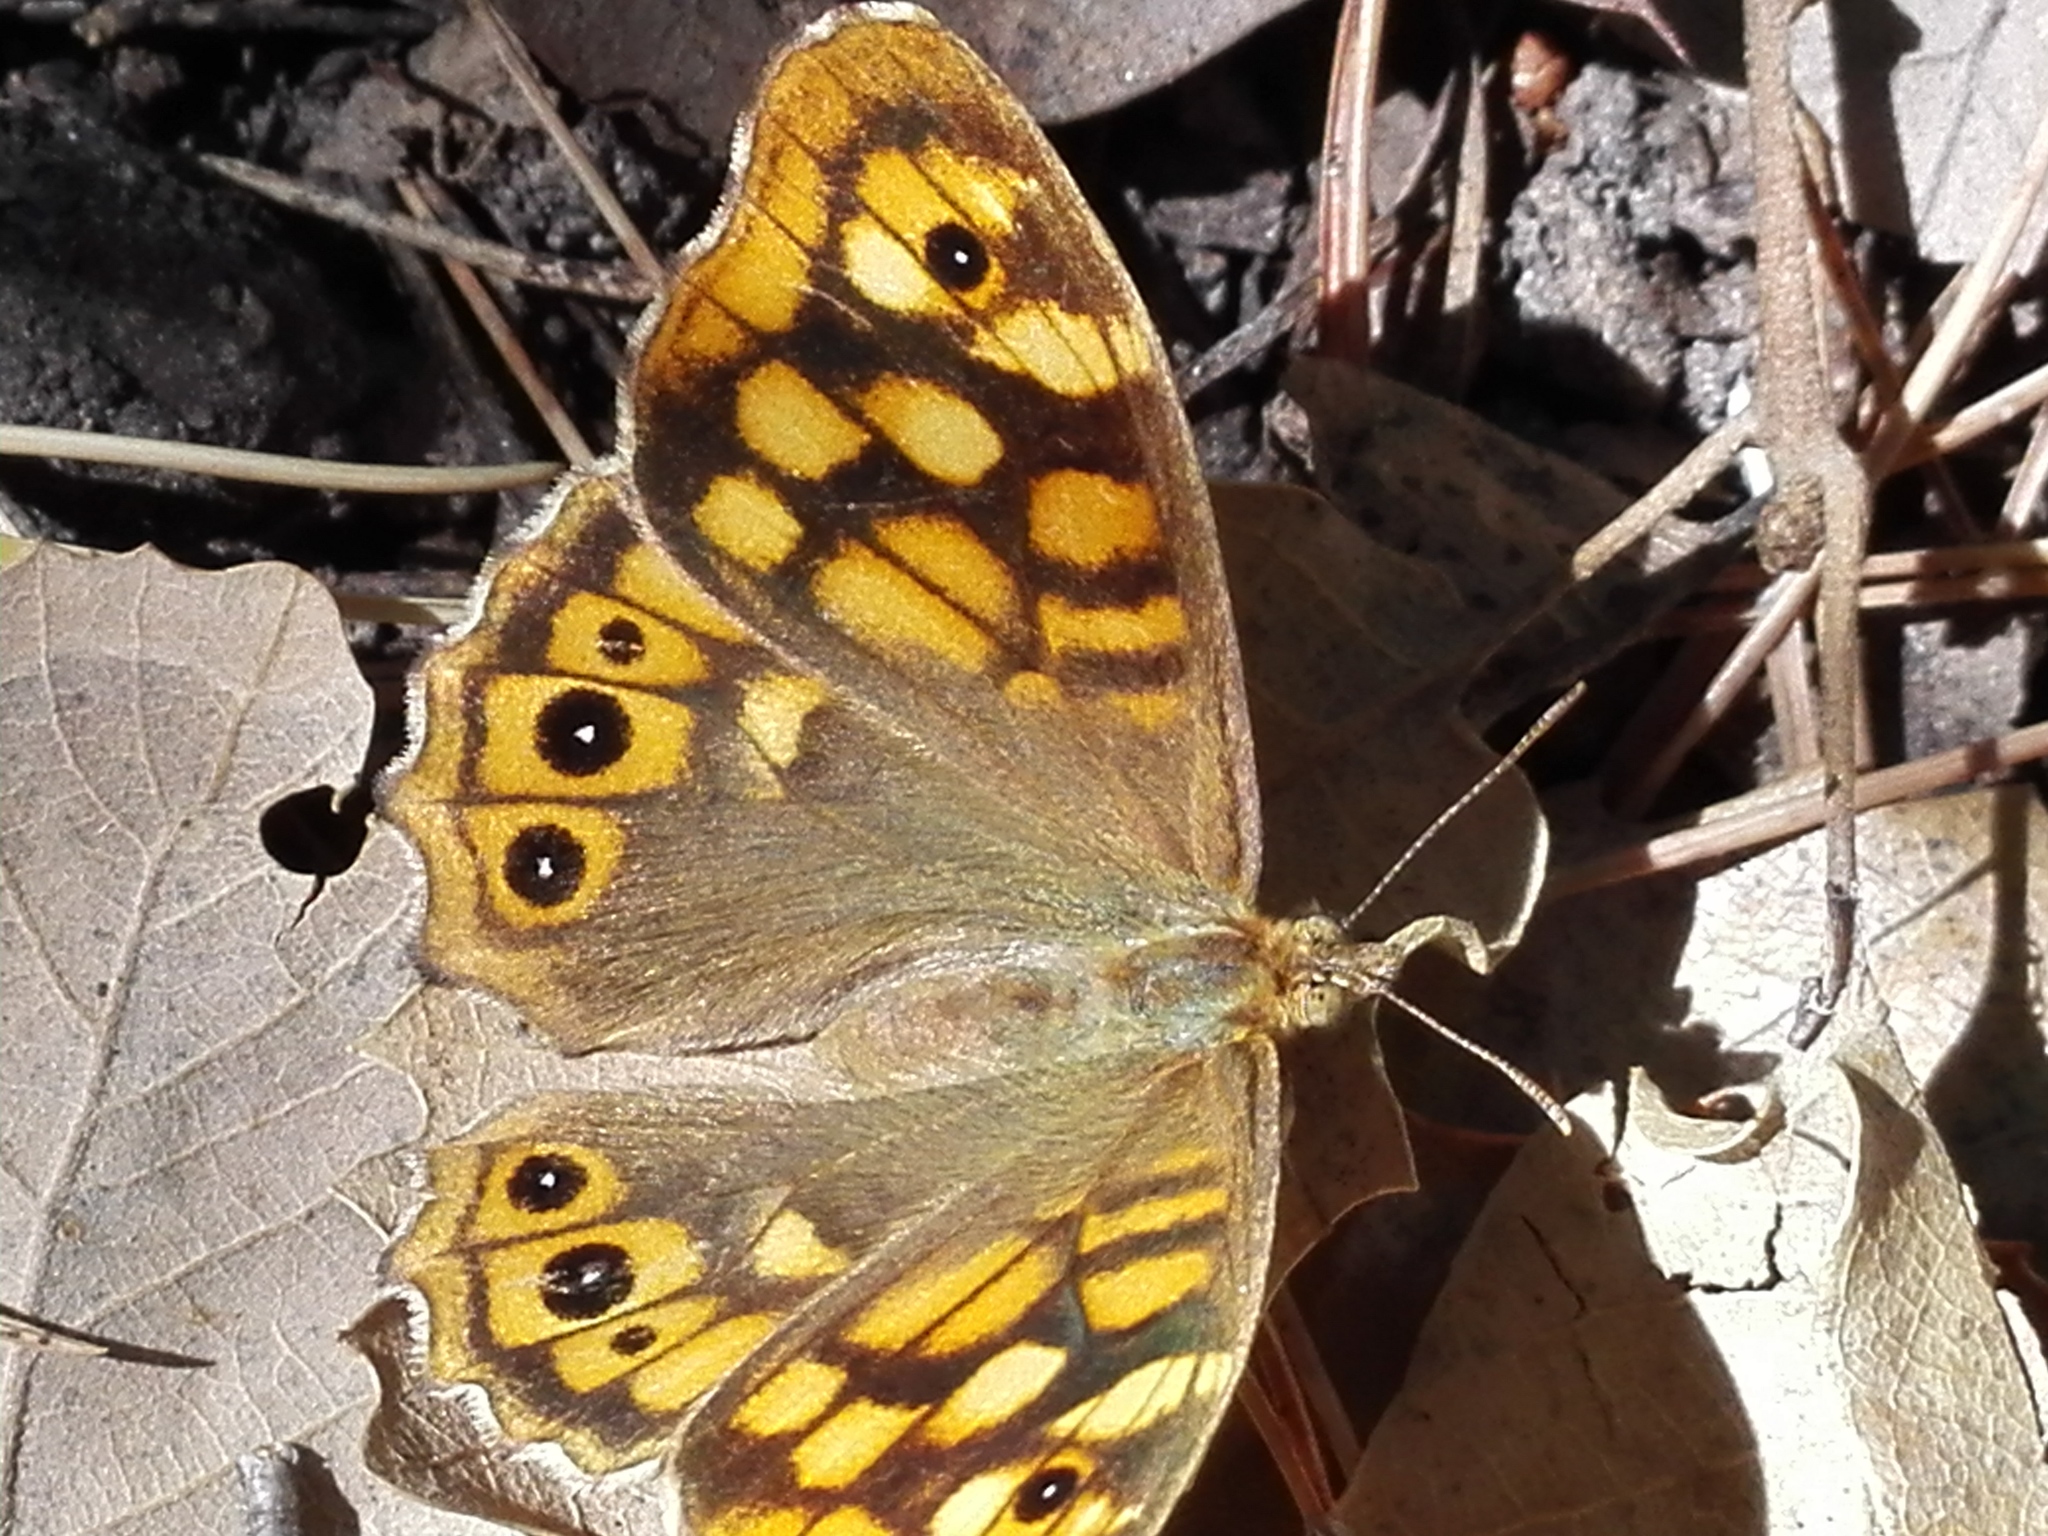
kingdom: Animalia
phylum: Arthropoda
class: Insecta
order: Lepidoptera
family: Nymphalidae
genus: Pararge
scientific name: Pararge aegeria
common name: Speckled wood
